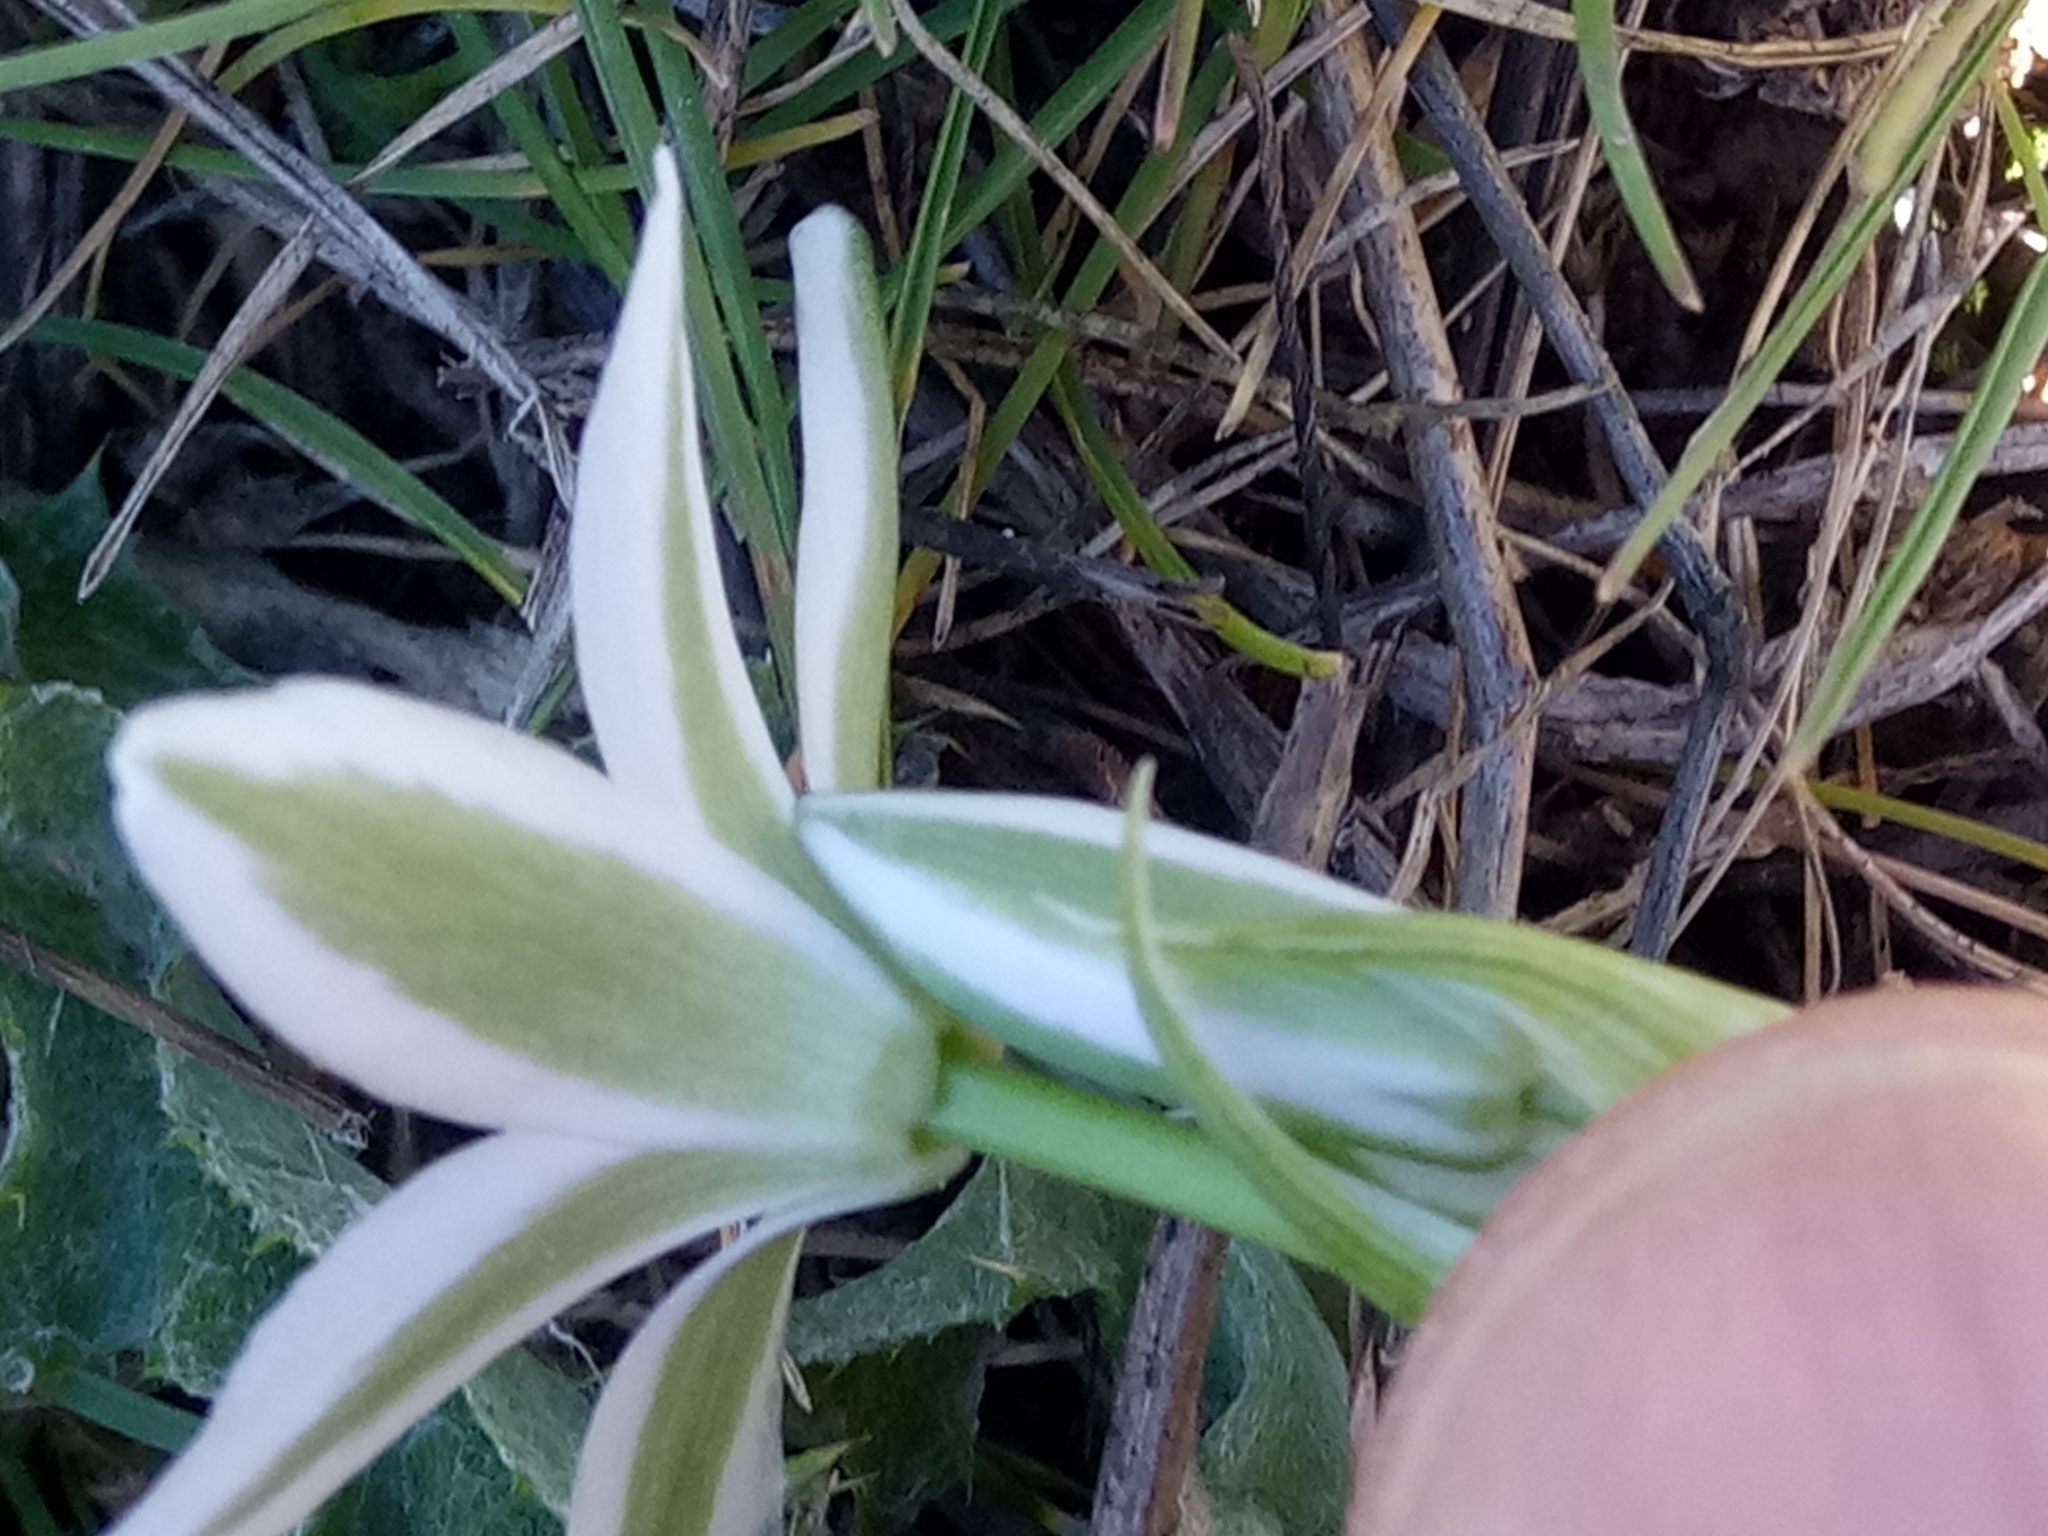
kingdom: Plantae
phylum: Tracheophyta
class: Liliopsida
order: Asparagales
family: Asparagaceae
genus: Ornithogalum
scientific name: Ornithogalum baeticum
